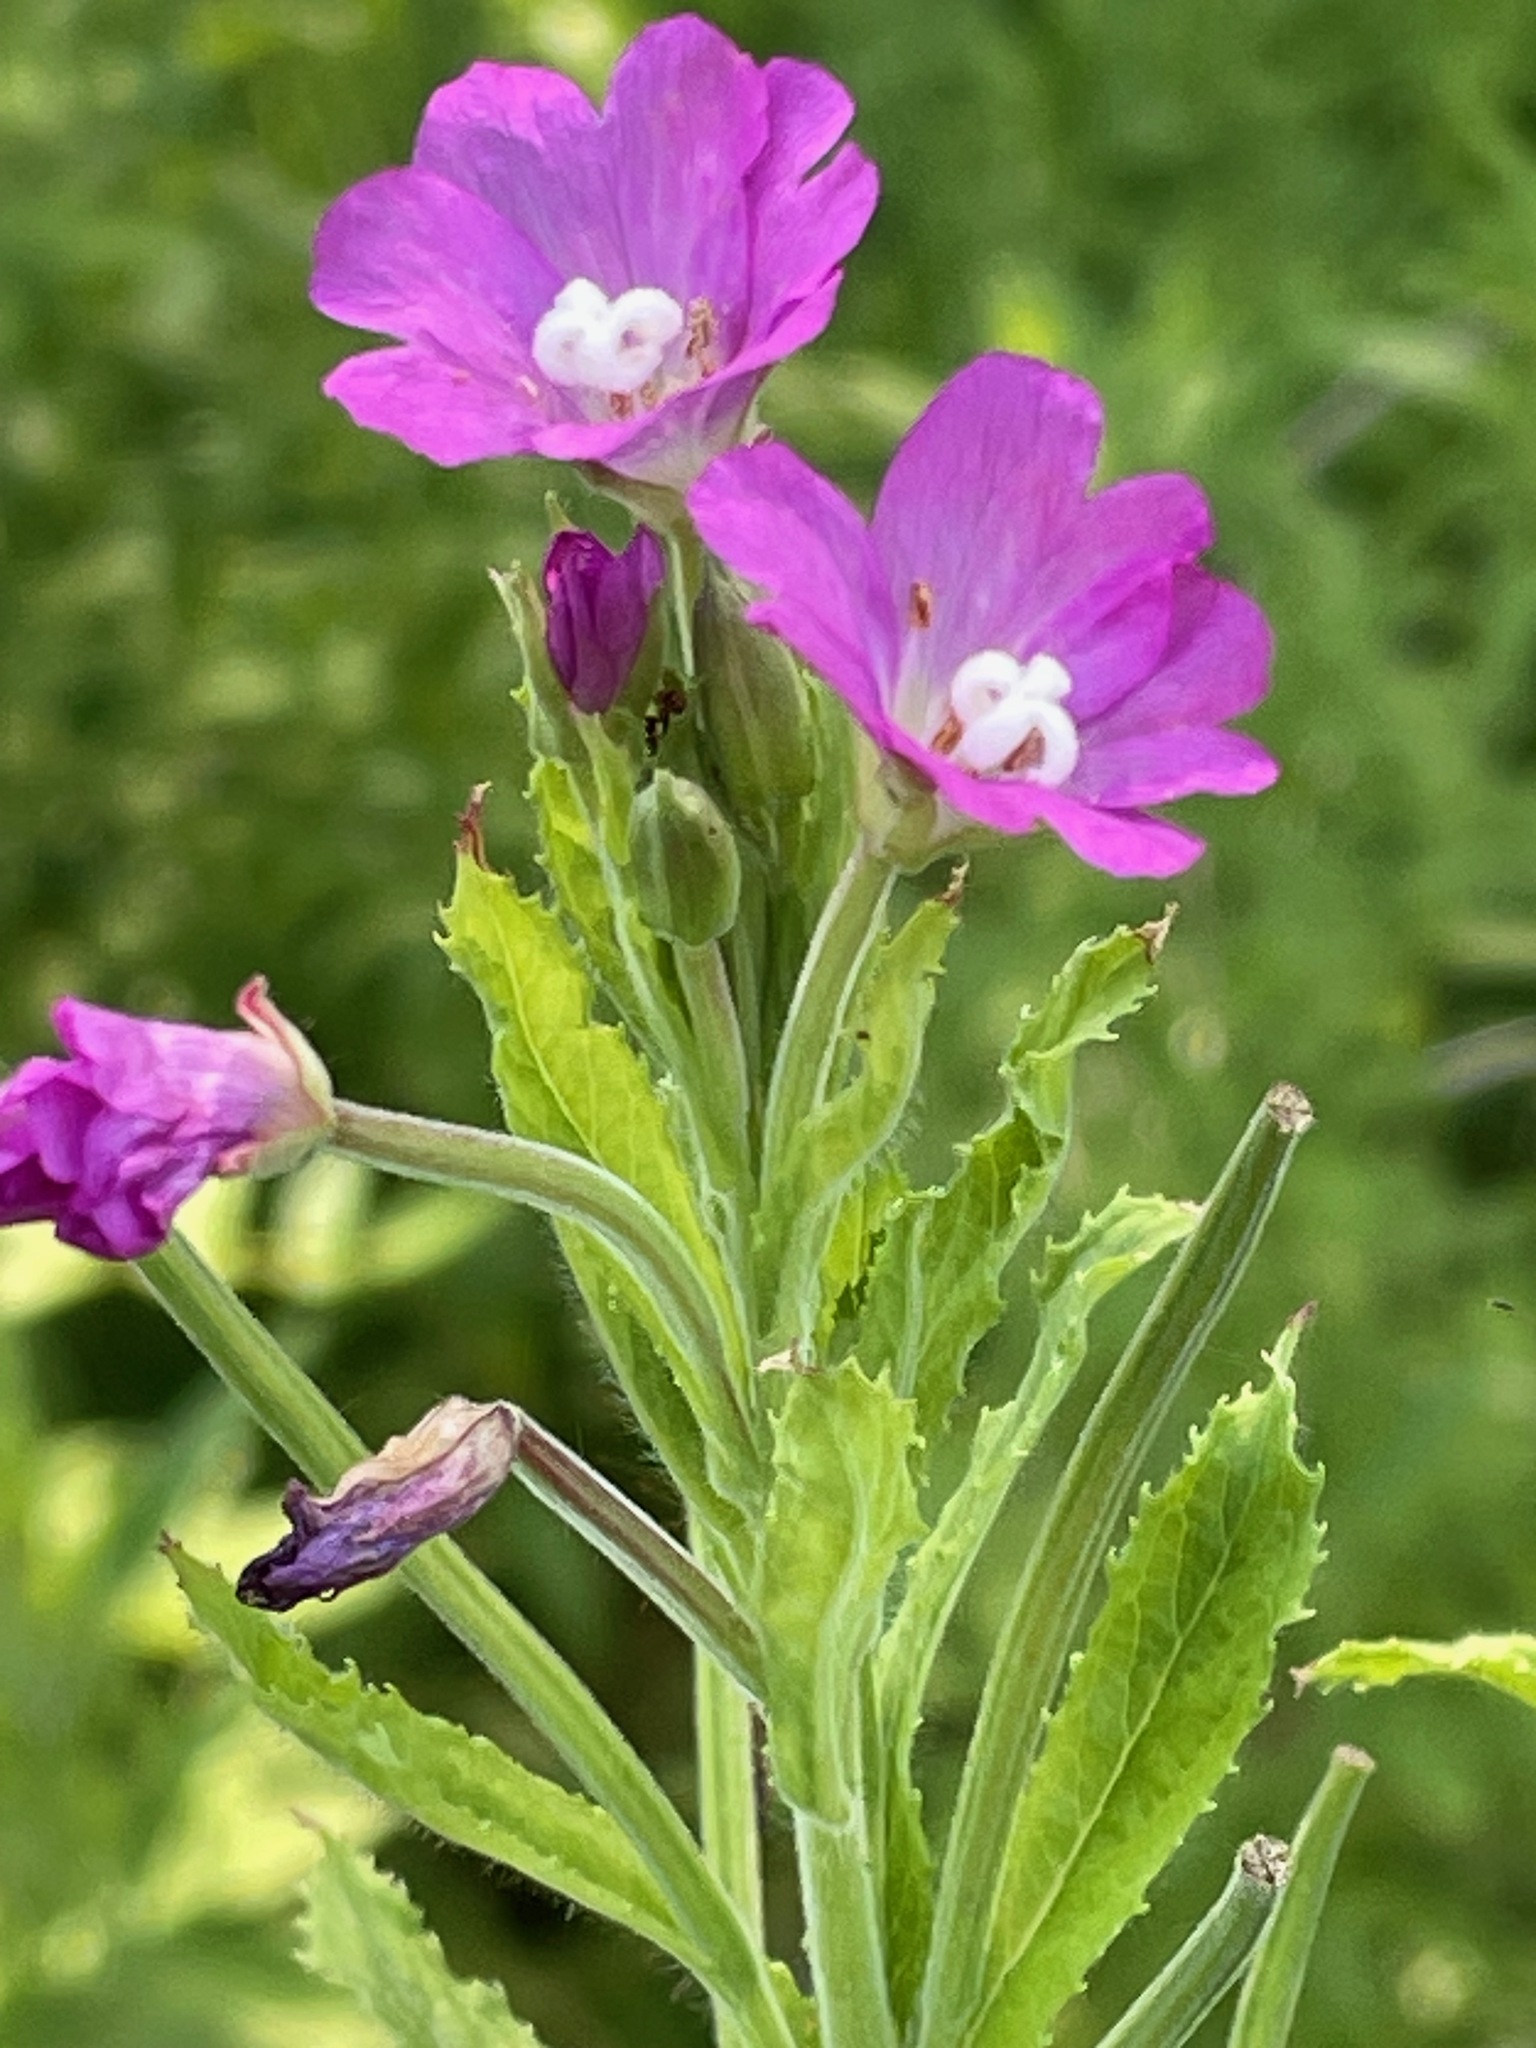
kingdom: Plantae
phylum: Tracheophyta
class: Magnoliopsida
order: Myrtales
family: Onagraceae
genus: Epilobium
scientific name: Epilobium hirsutum
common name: Great willowherb
